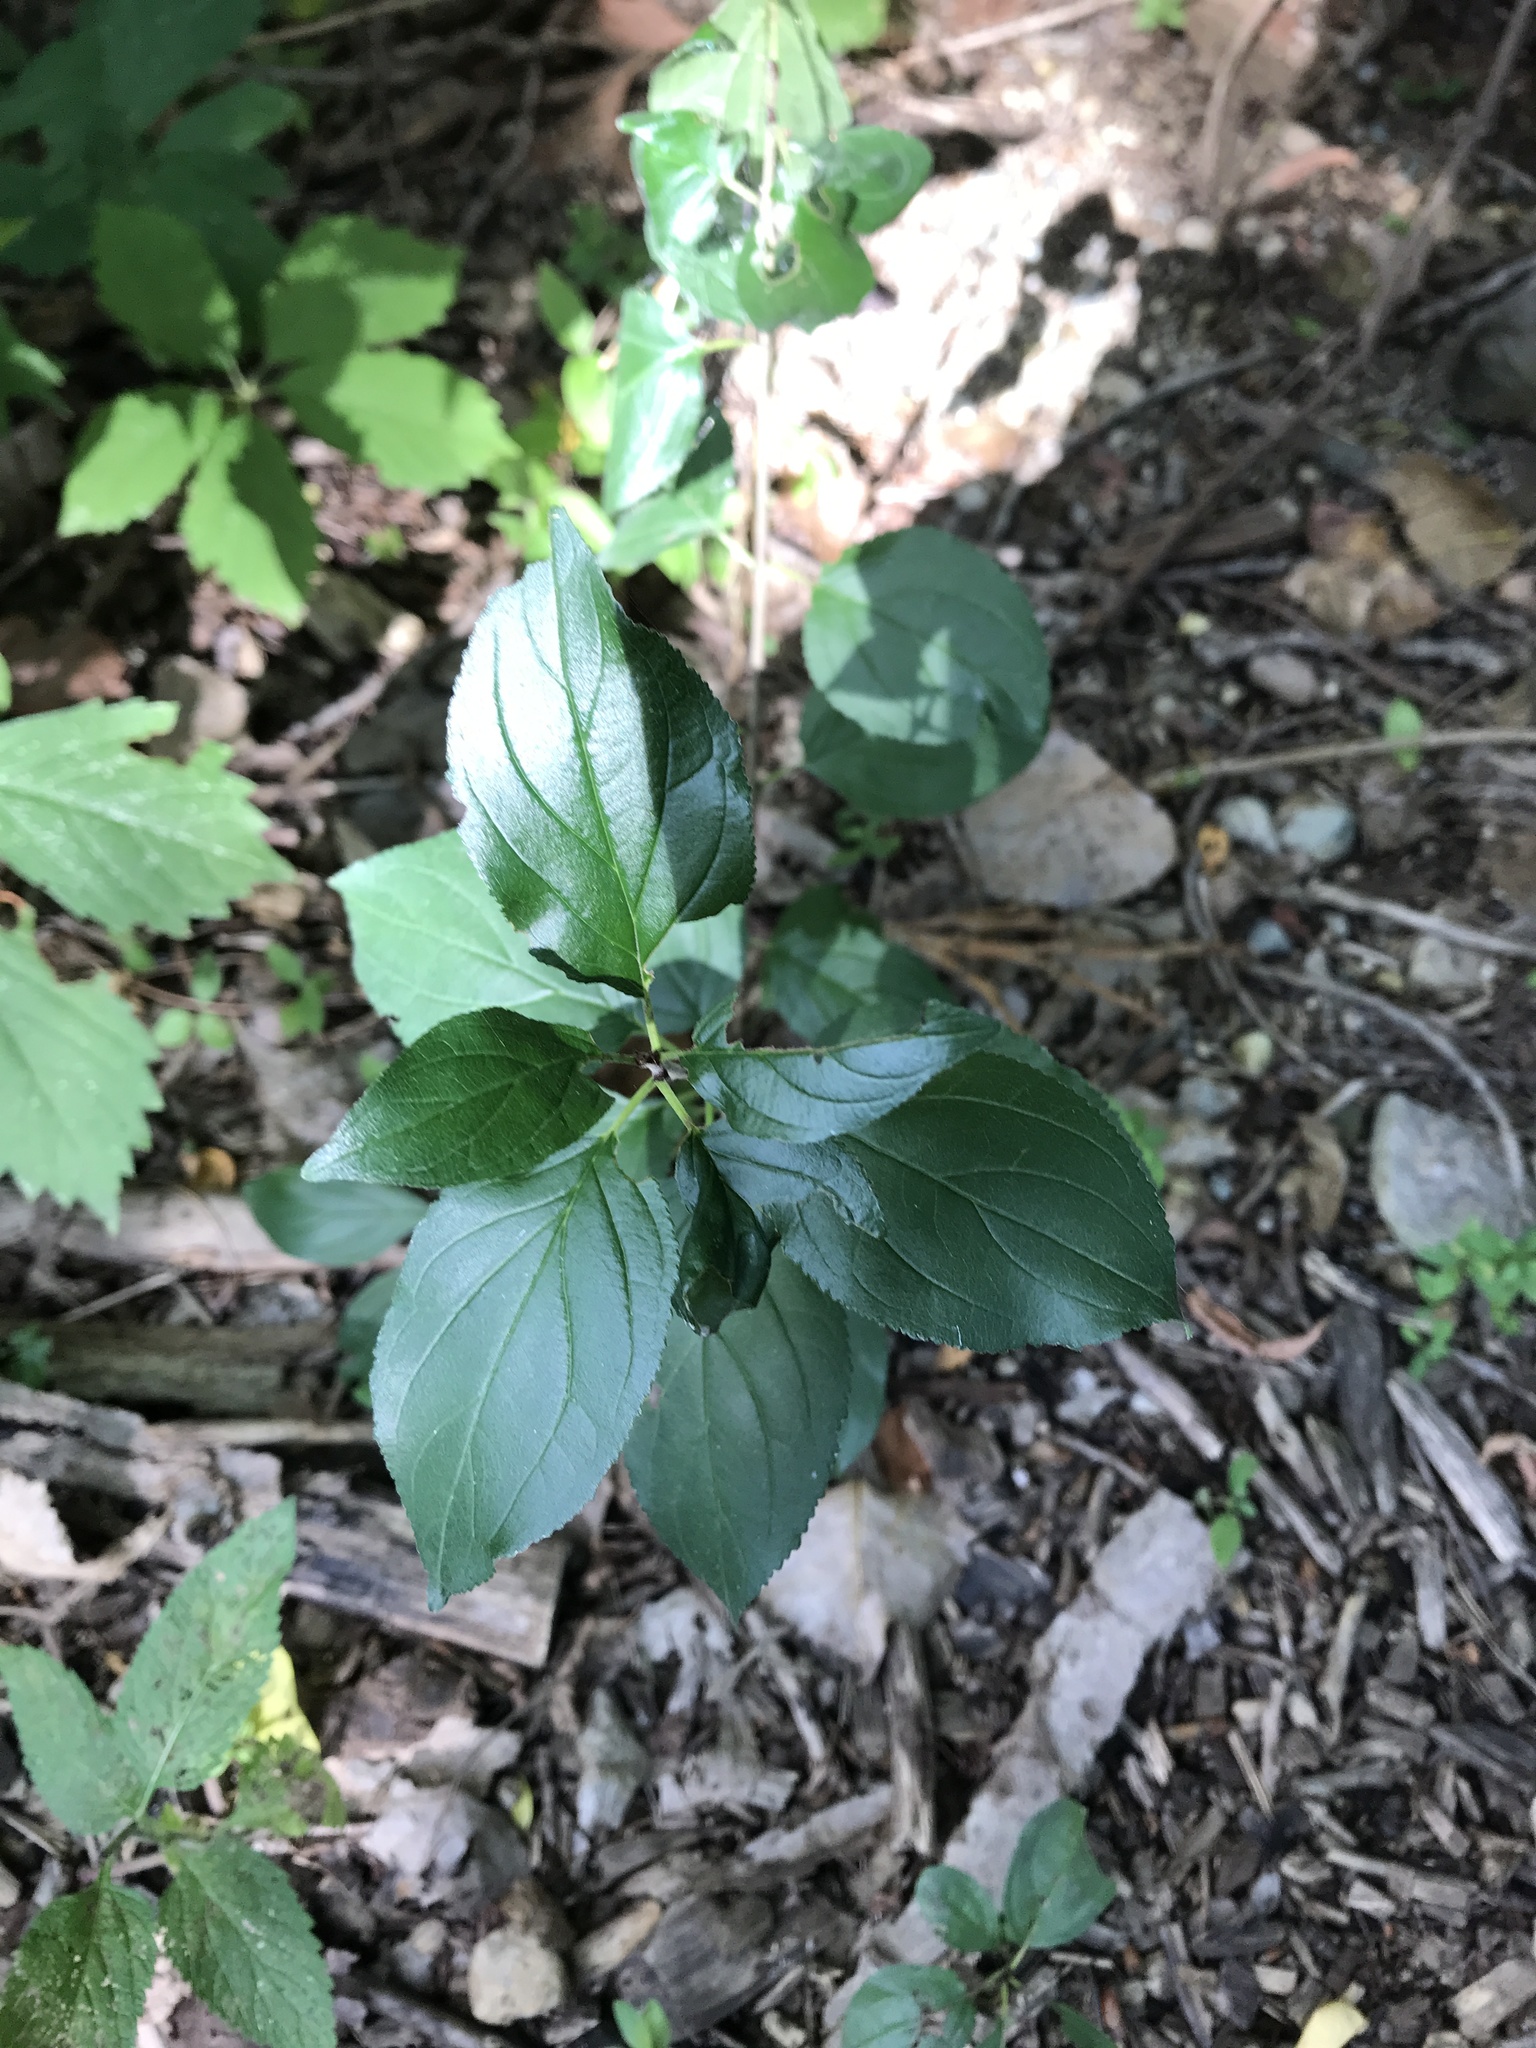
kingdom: Plantae
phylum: Tracheophyta
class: Magnoliopsida
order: Rosales
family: Rhamnaceae
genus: Rhamnus
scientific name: Rhamnus cathartica
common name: Common buckthorn
